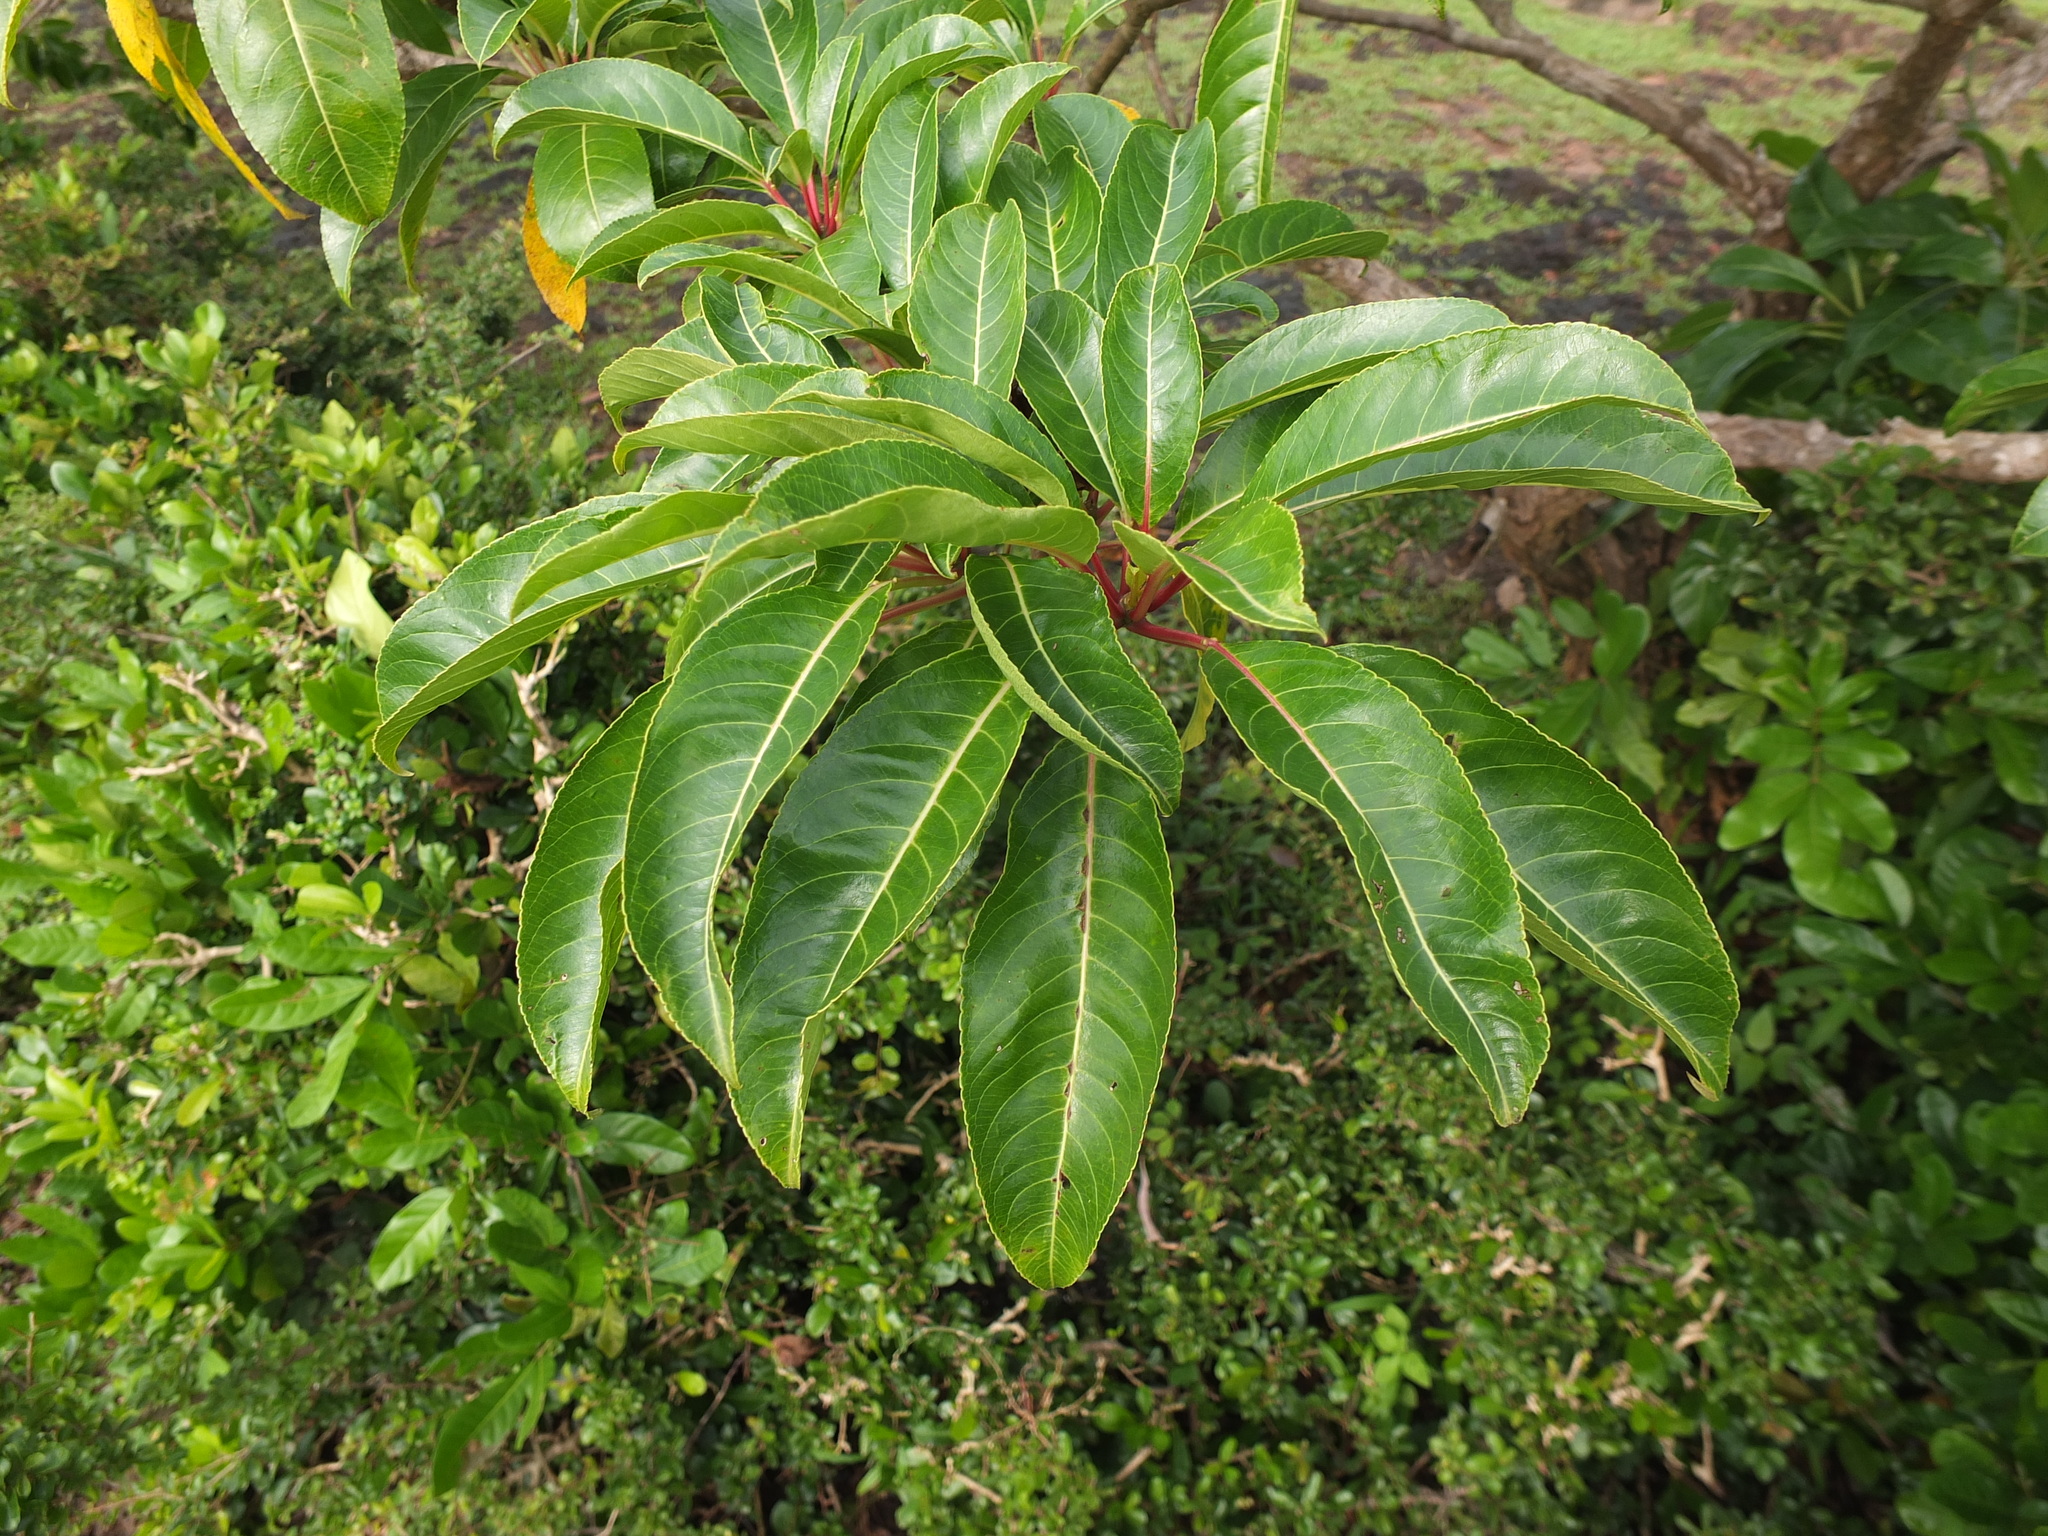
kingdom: Plantae
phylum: Tracheophyta
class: Magnoliopsida
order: Malpighiales
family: Euphorbiaceae
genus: Falconeria
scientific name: Falconeria insignis
